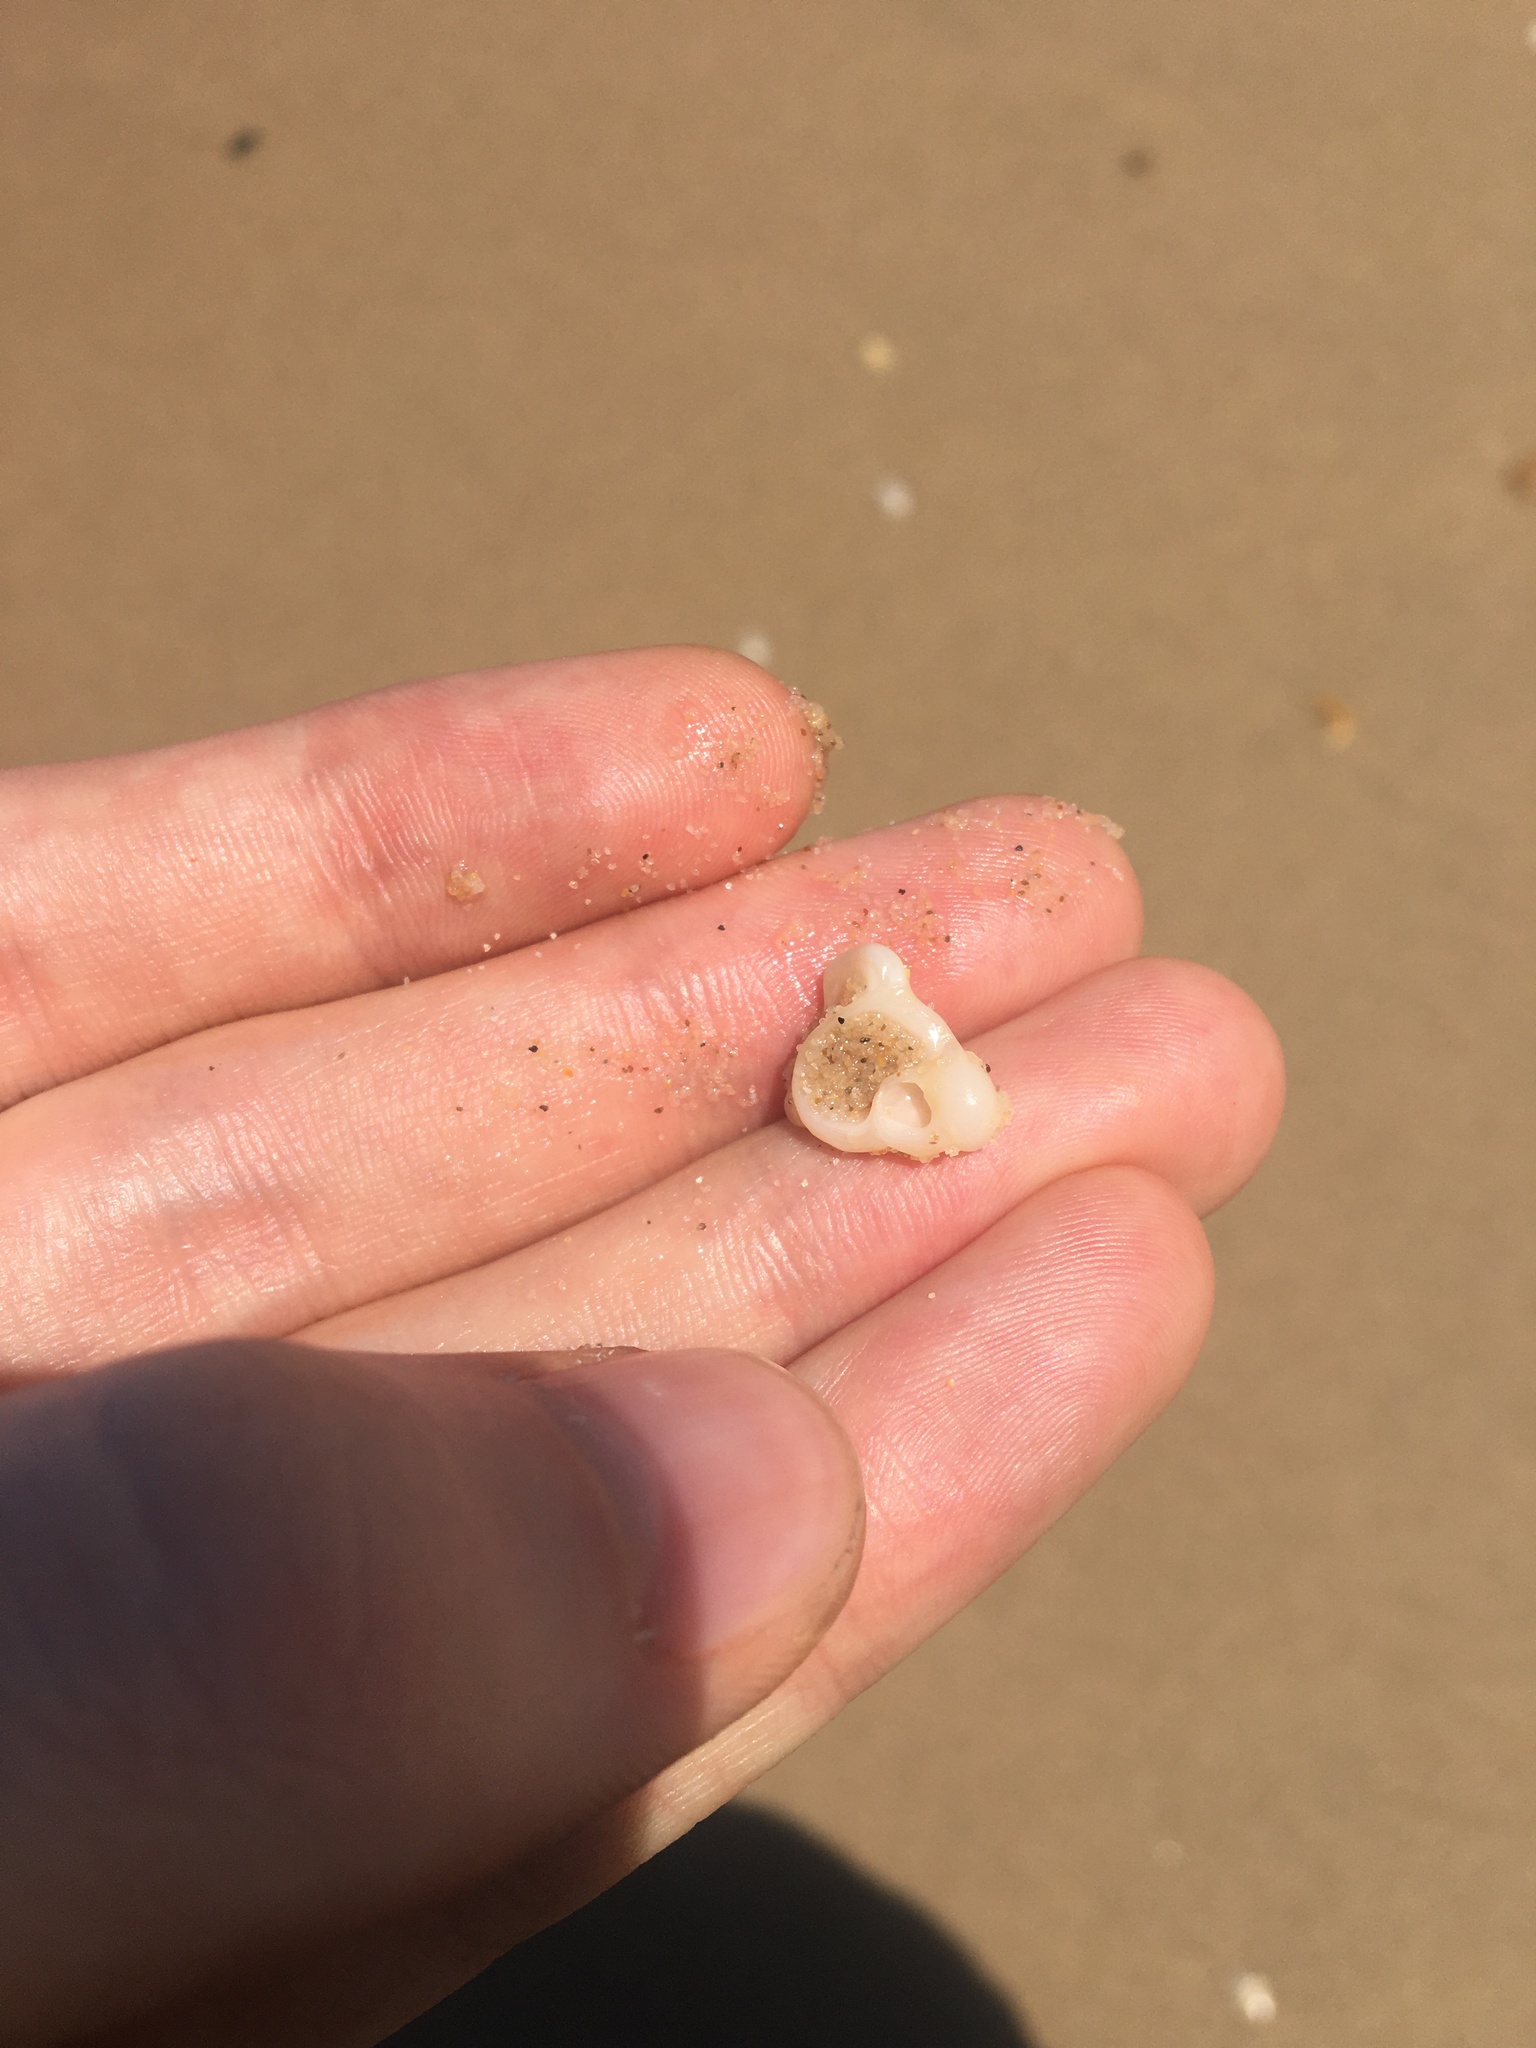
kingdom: Animalia
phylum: Mollusca
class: Gastropoda
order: Littorinimorpha
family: Struthiolariidae
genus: Tylospira
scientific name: Tylospira scutulata
